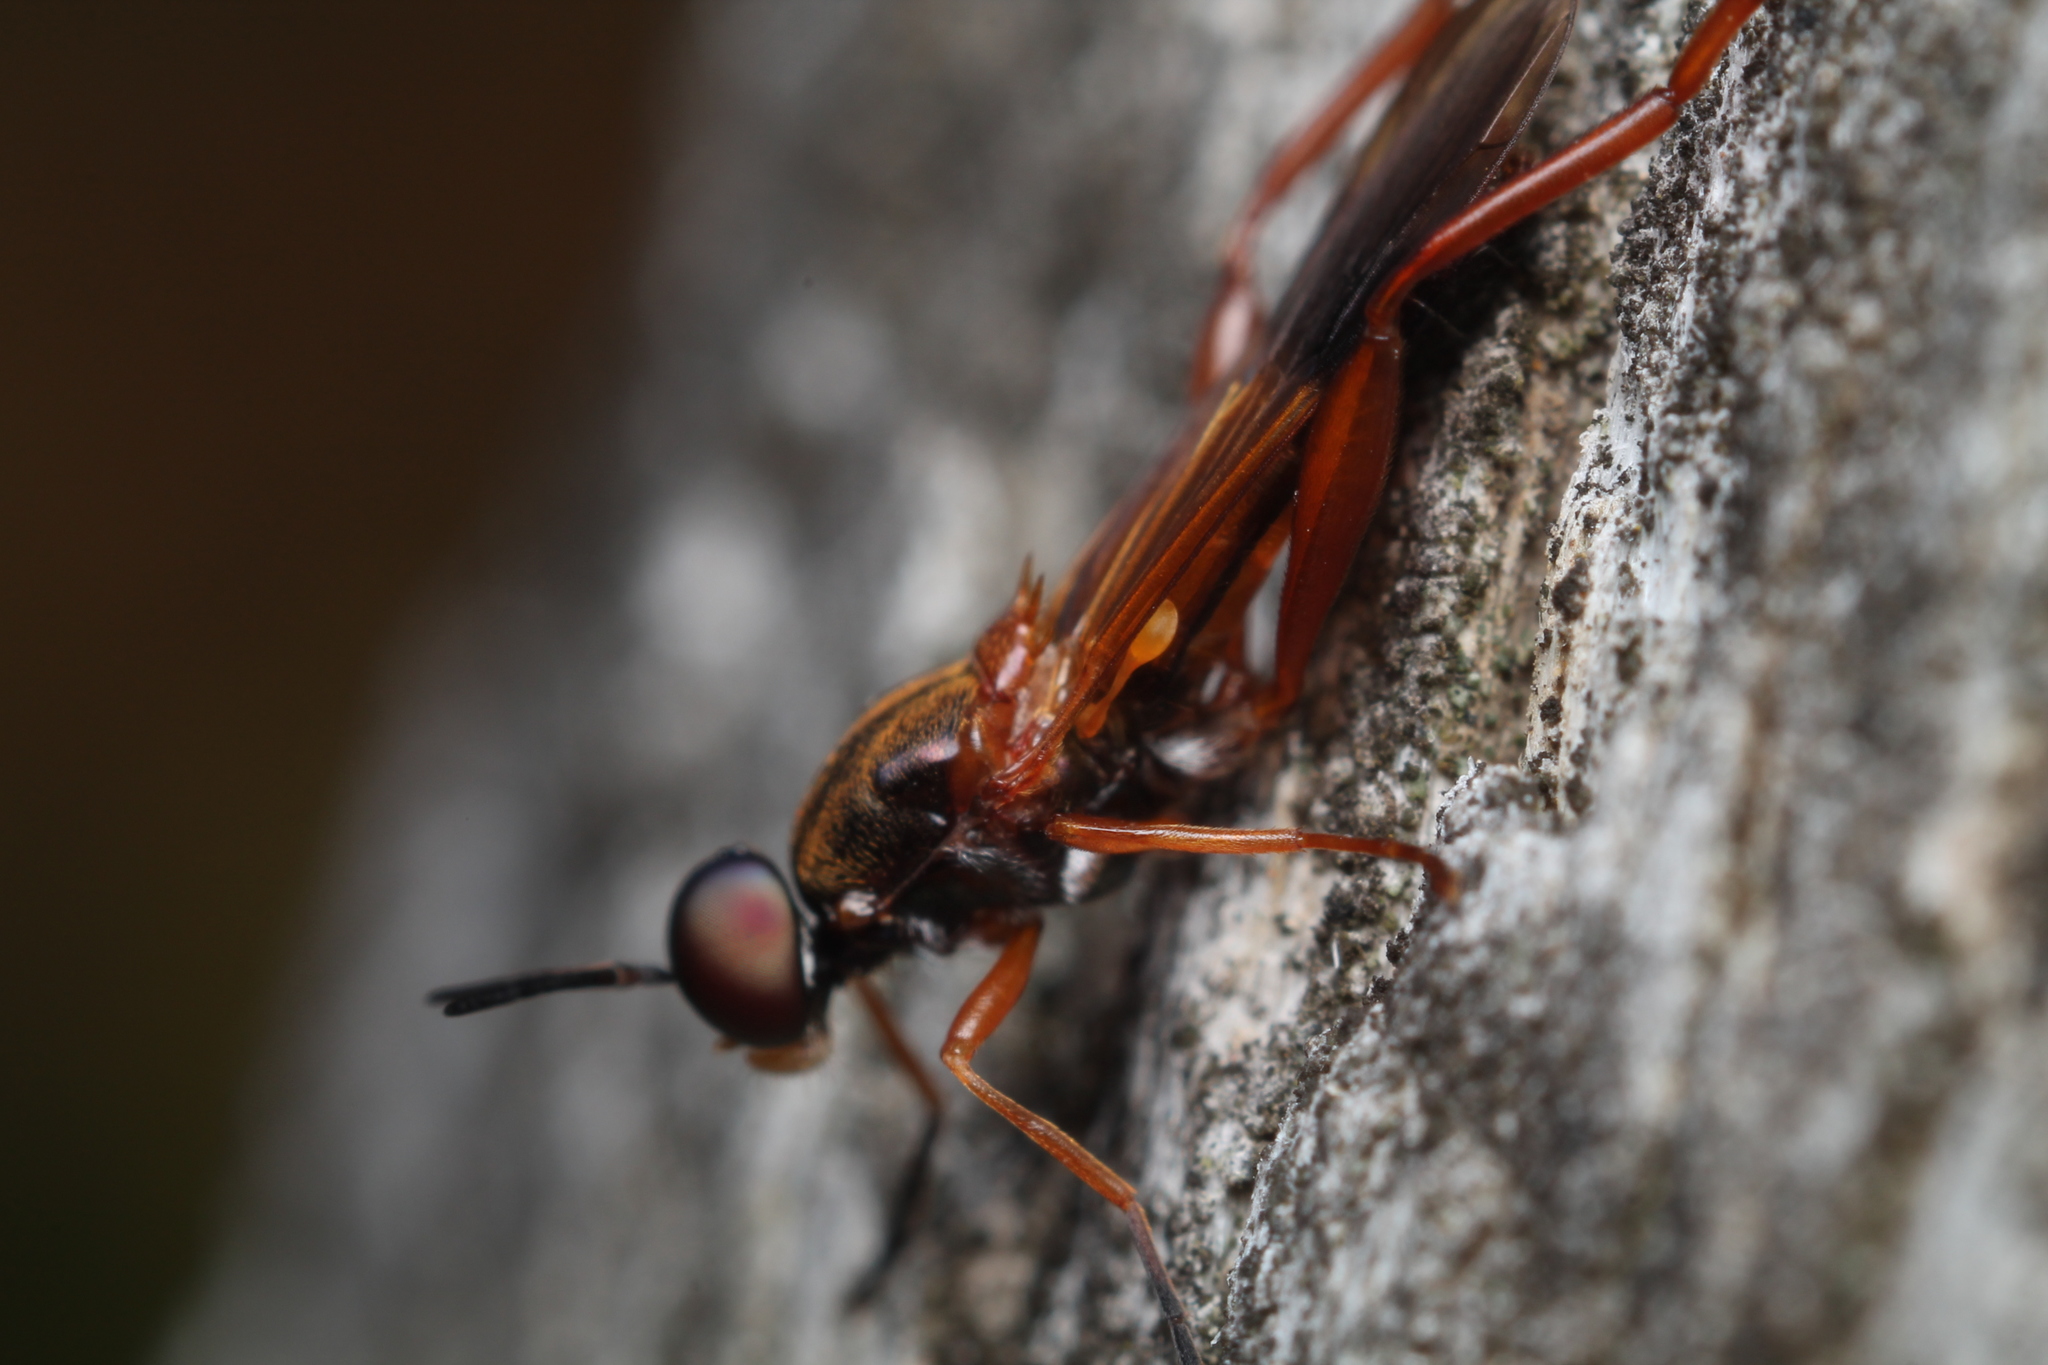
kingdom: Animalia
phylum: Arthropoda
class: Insecta
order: Diptera
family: Stratiomyidae
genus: Benhamyia
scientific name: Benhamyia apicalis
